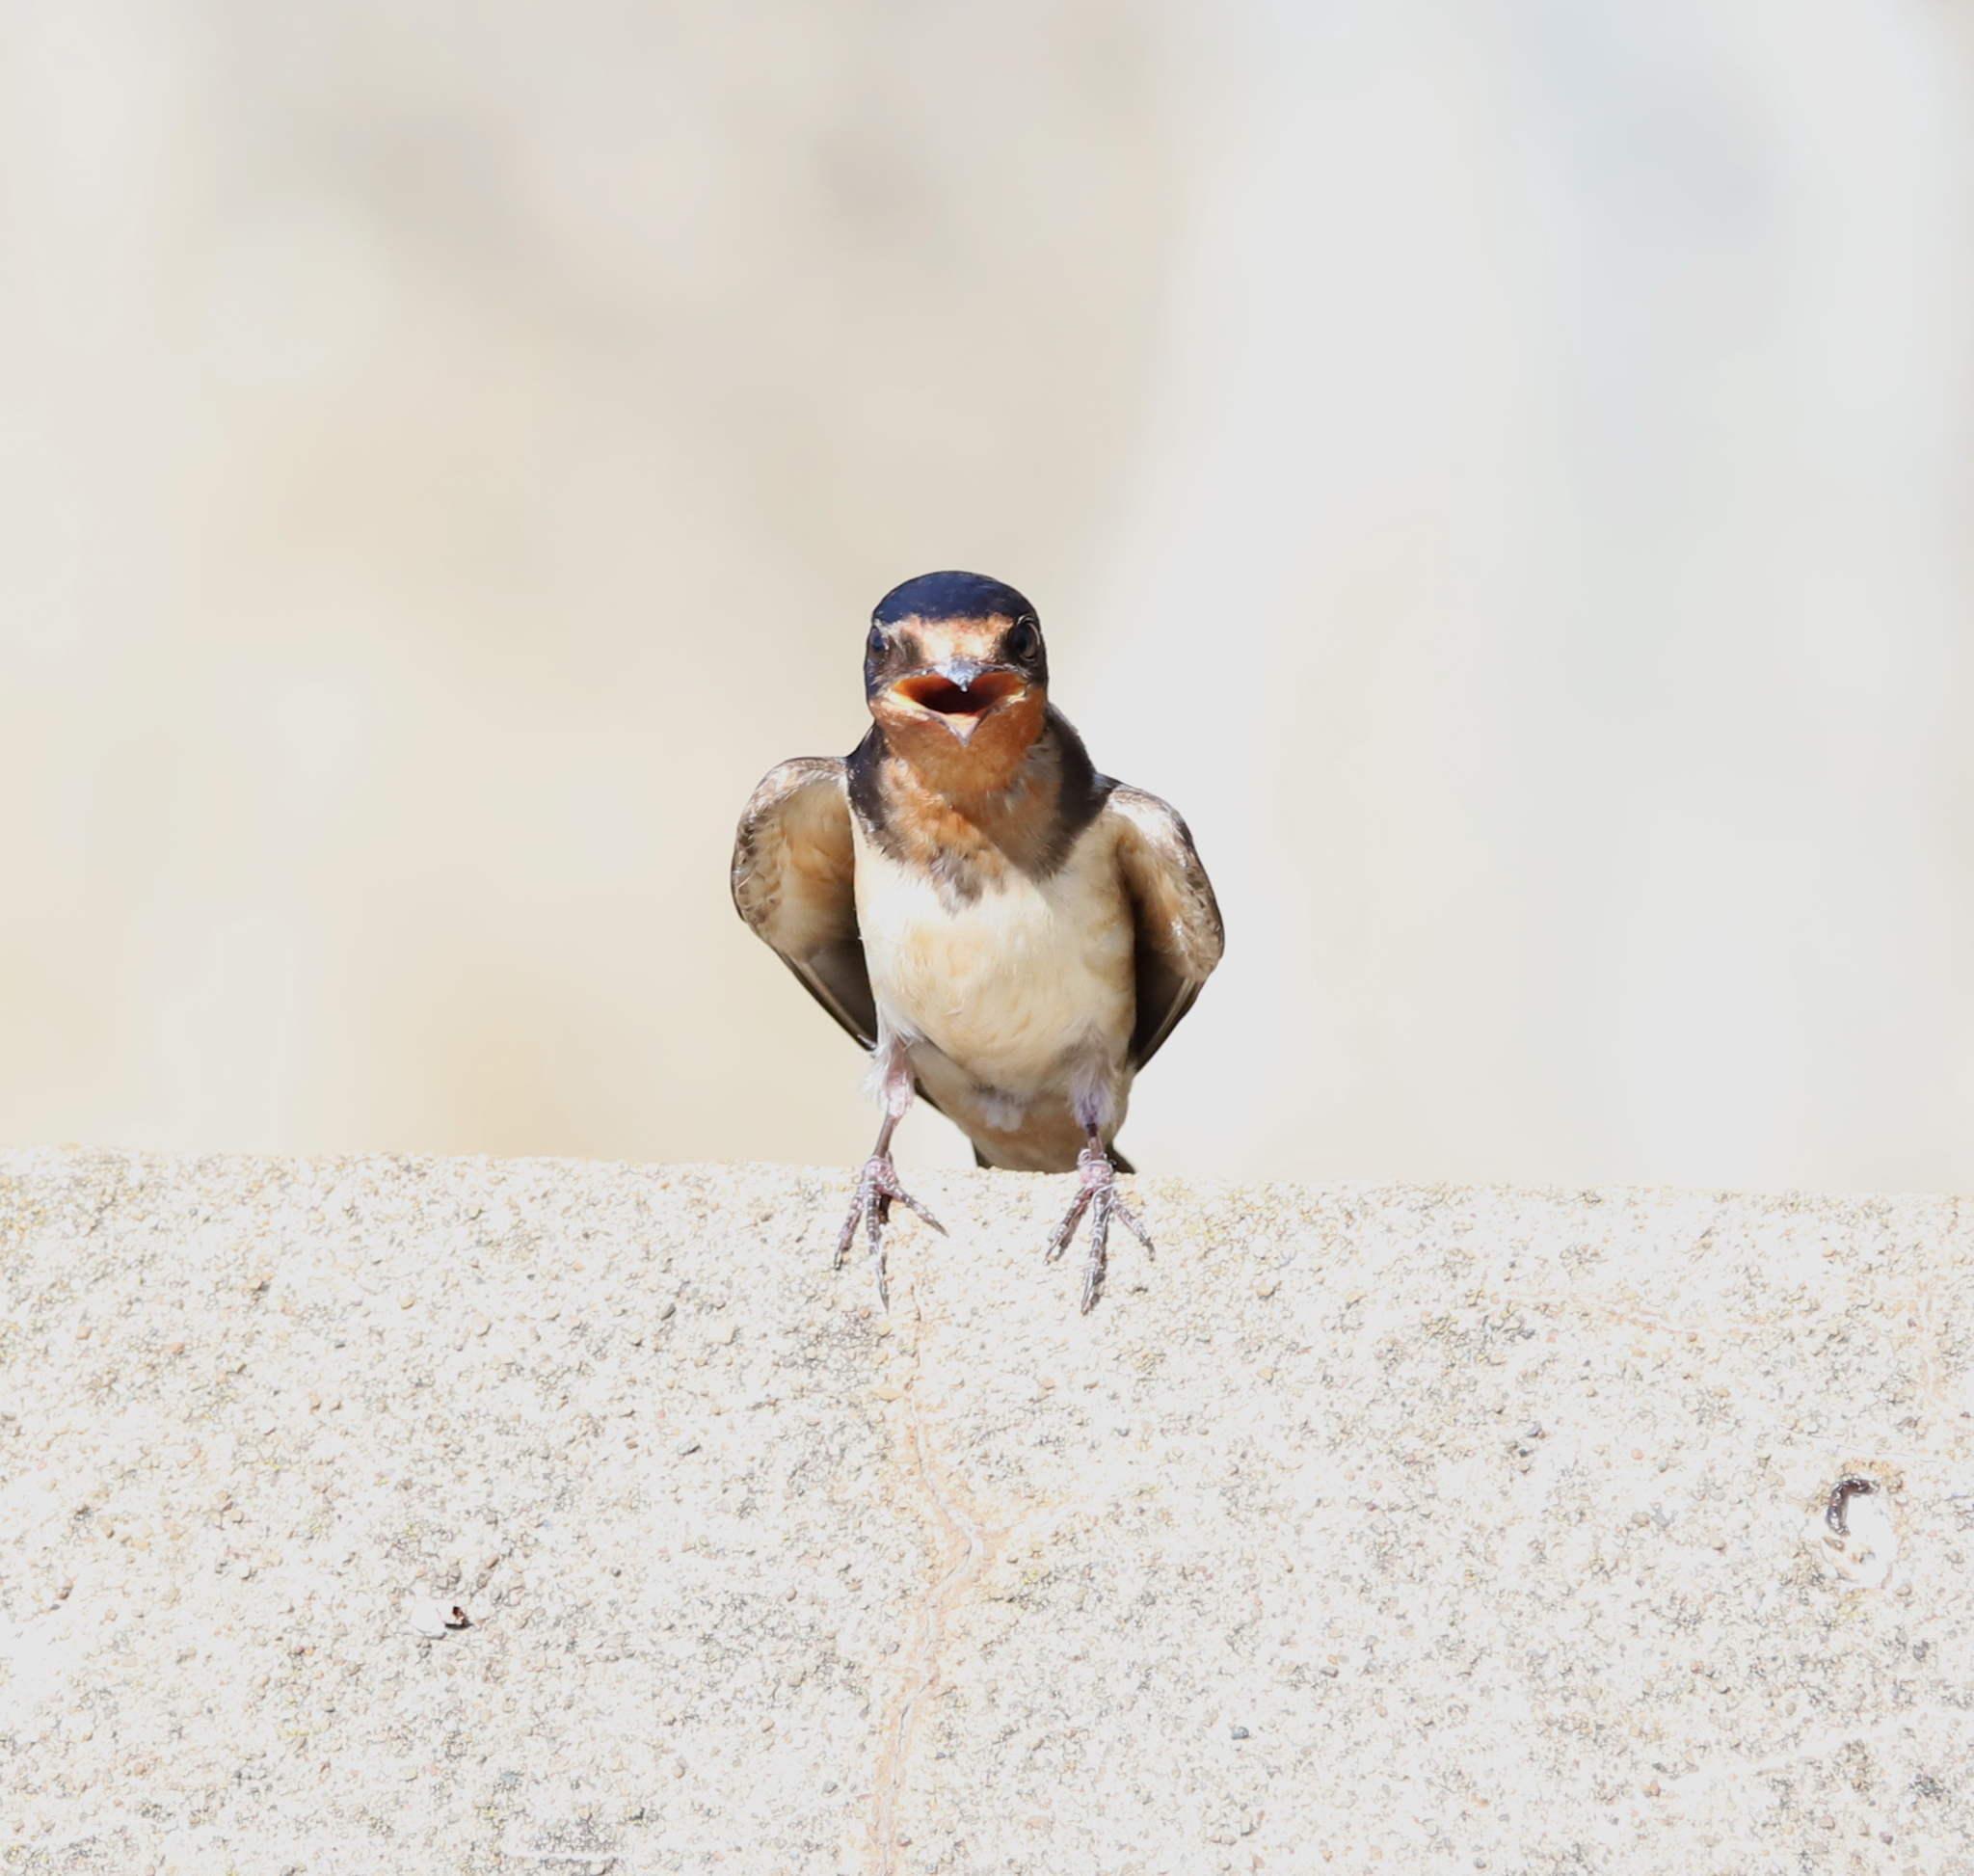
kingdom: Animalia
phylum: Chordata
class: Aves
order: Passeriformes
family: Hirundinidae
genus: Hirundo
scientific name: Hirundo rustica
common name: Barn swallow
